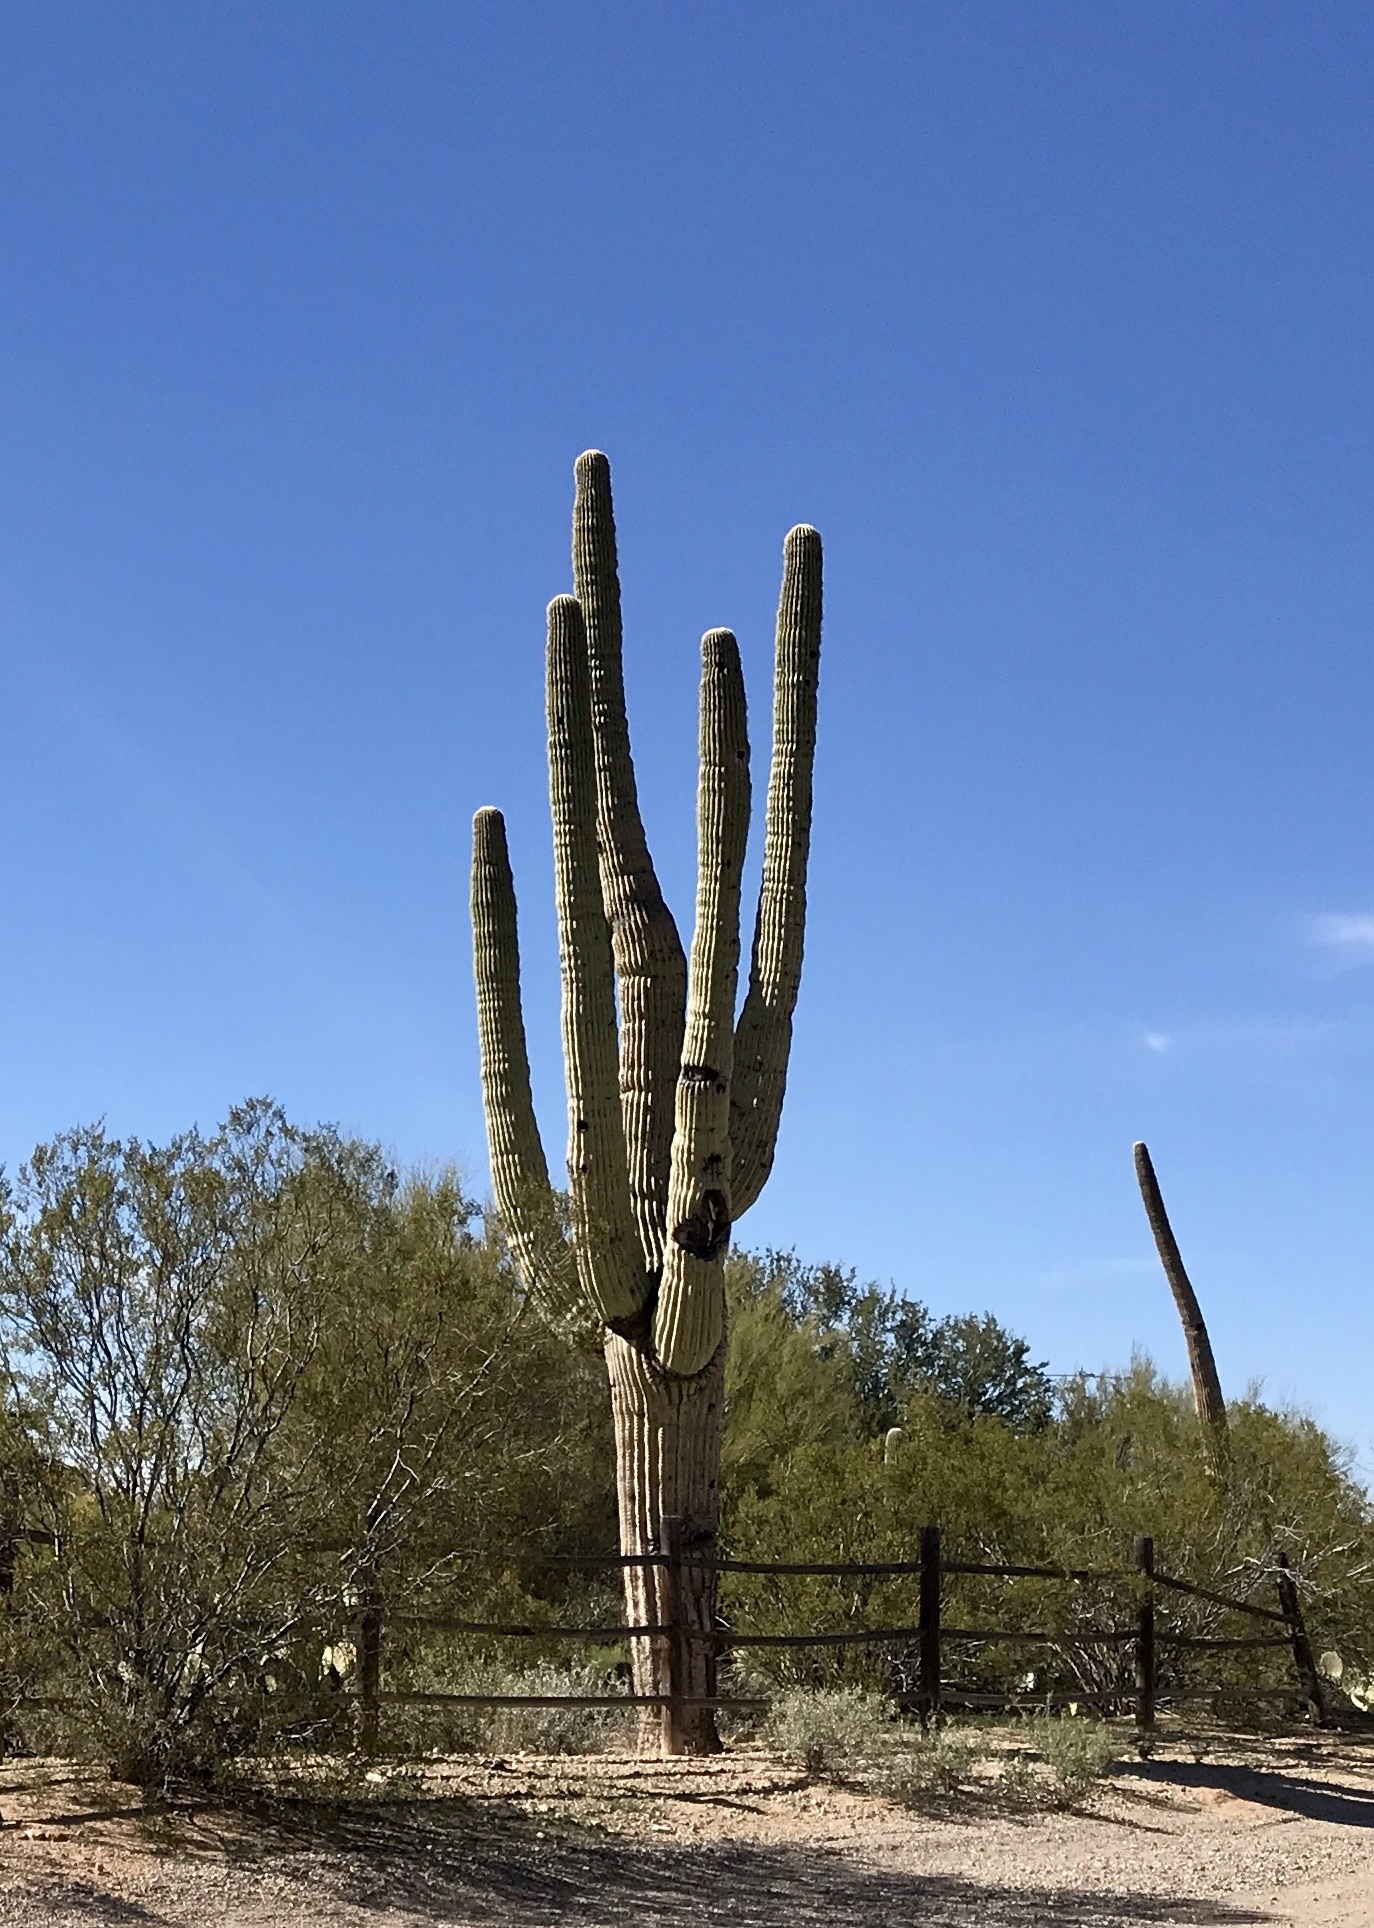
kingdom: Plantae
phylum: Tracheophyta
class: Magnoliopsida
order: Caryophyllales
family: Cactaceae
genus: Carnegiea
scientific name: Carnegiea gigantea
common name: Saguaro
